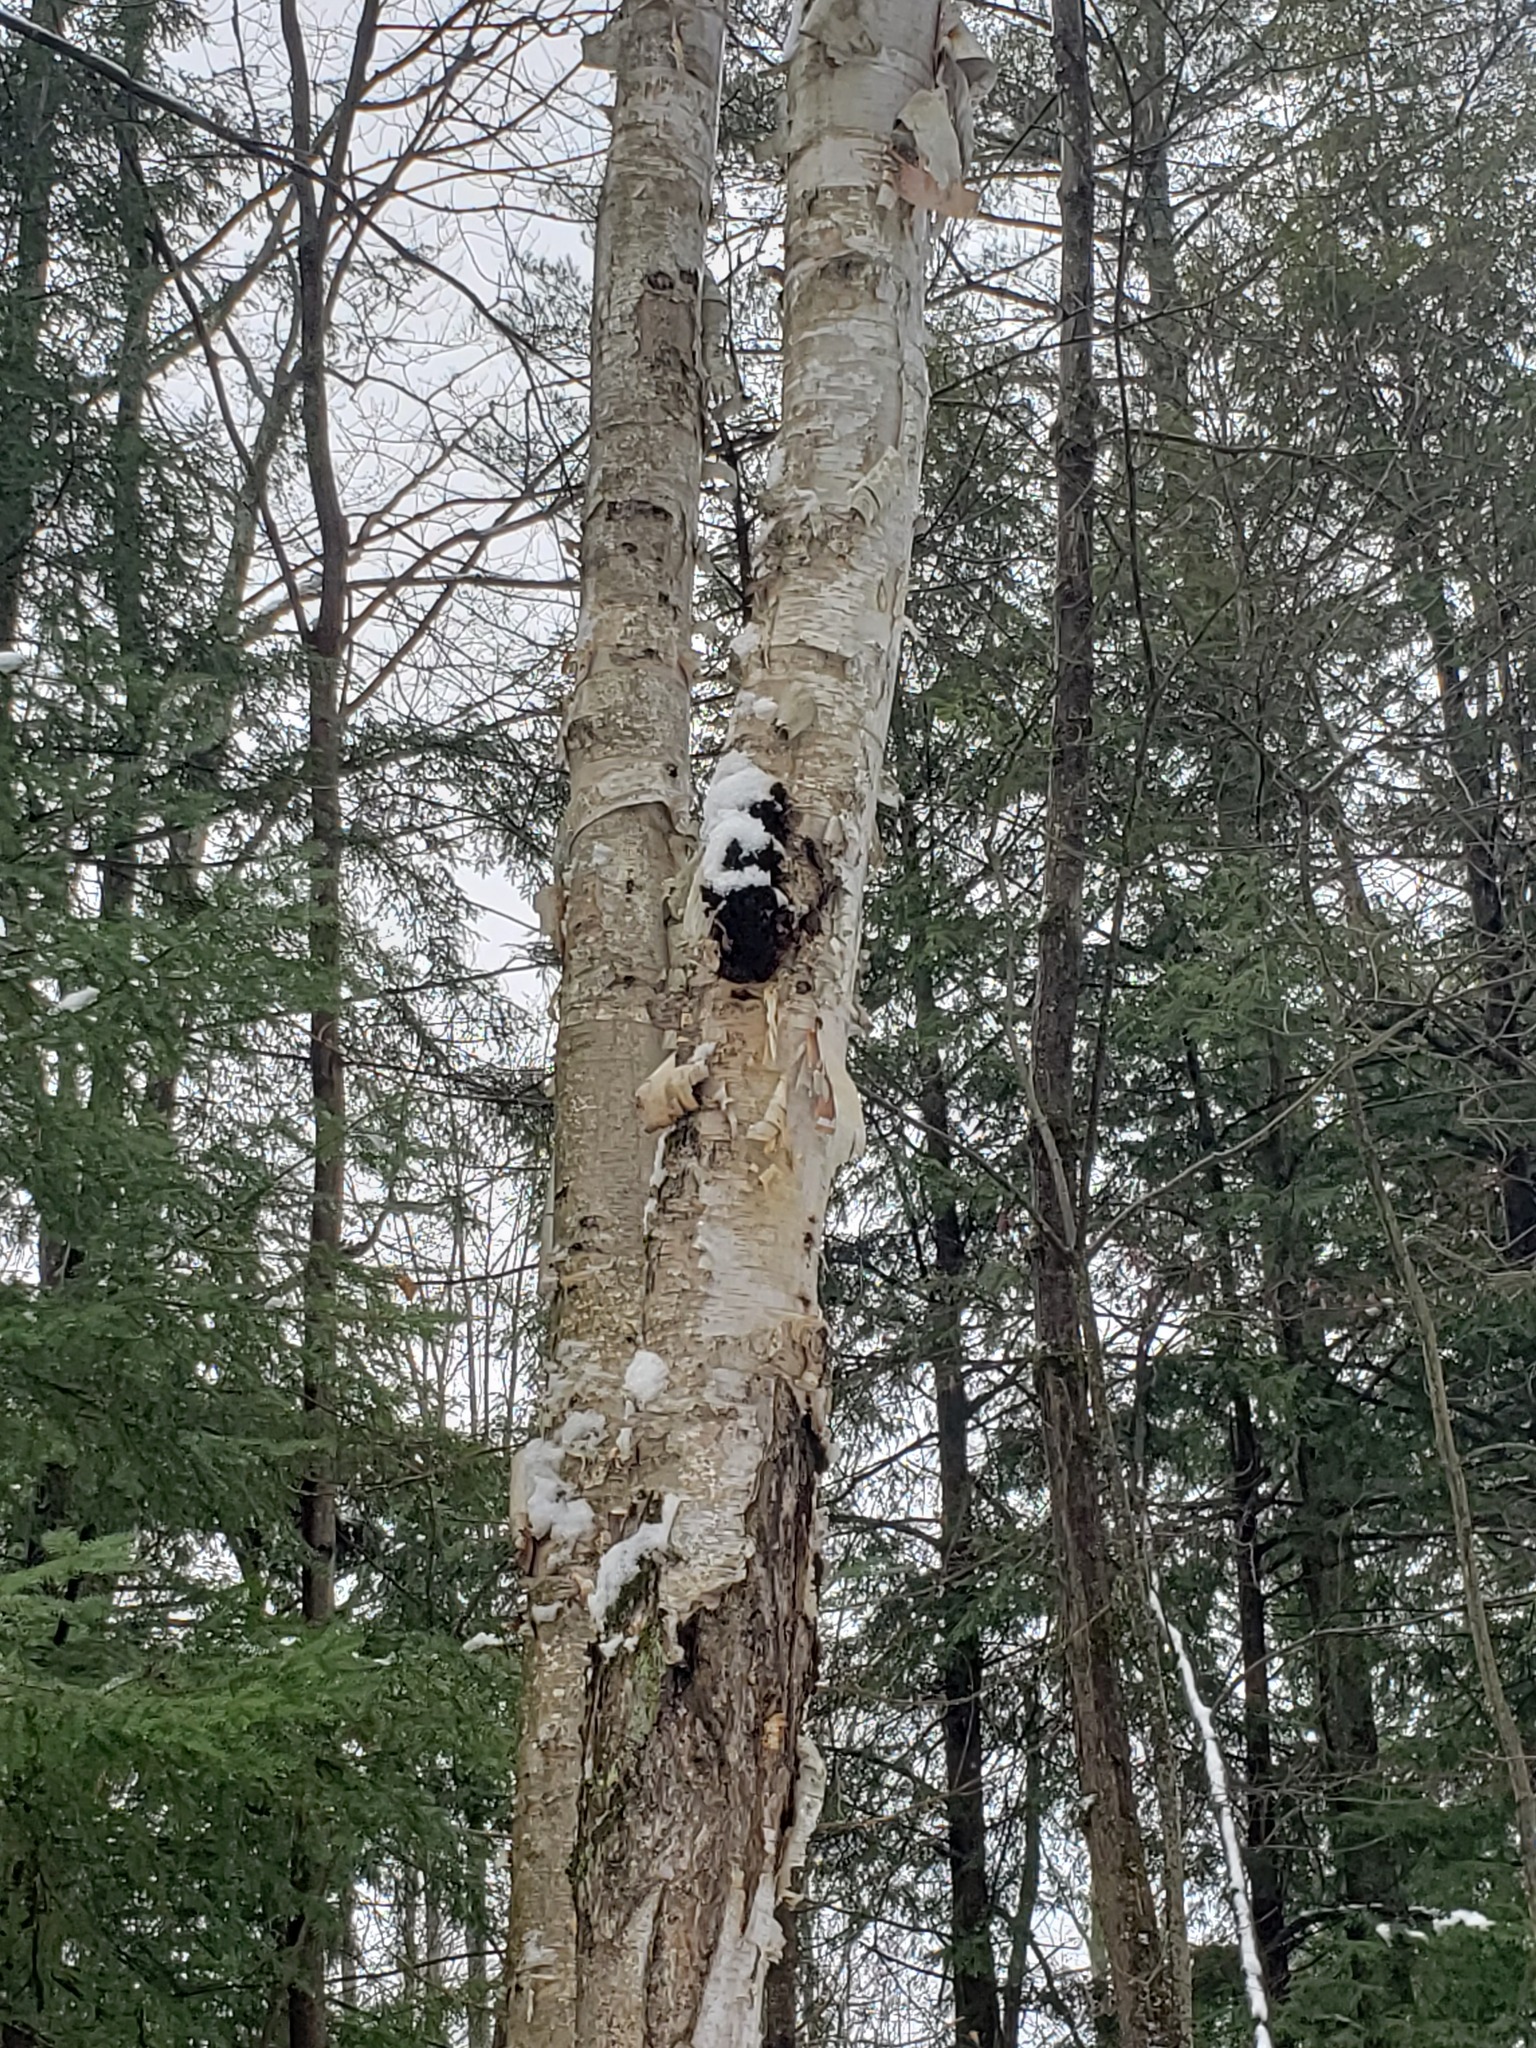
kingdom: Fungi
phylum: Basidiomycota
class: Agaricomycetes
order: Hymenochaetales
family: Hymenochaetaceae
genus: Inonotus
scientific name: Inonotus obliquus
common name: Chaga
